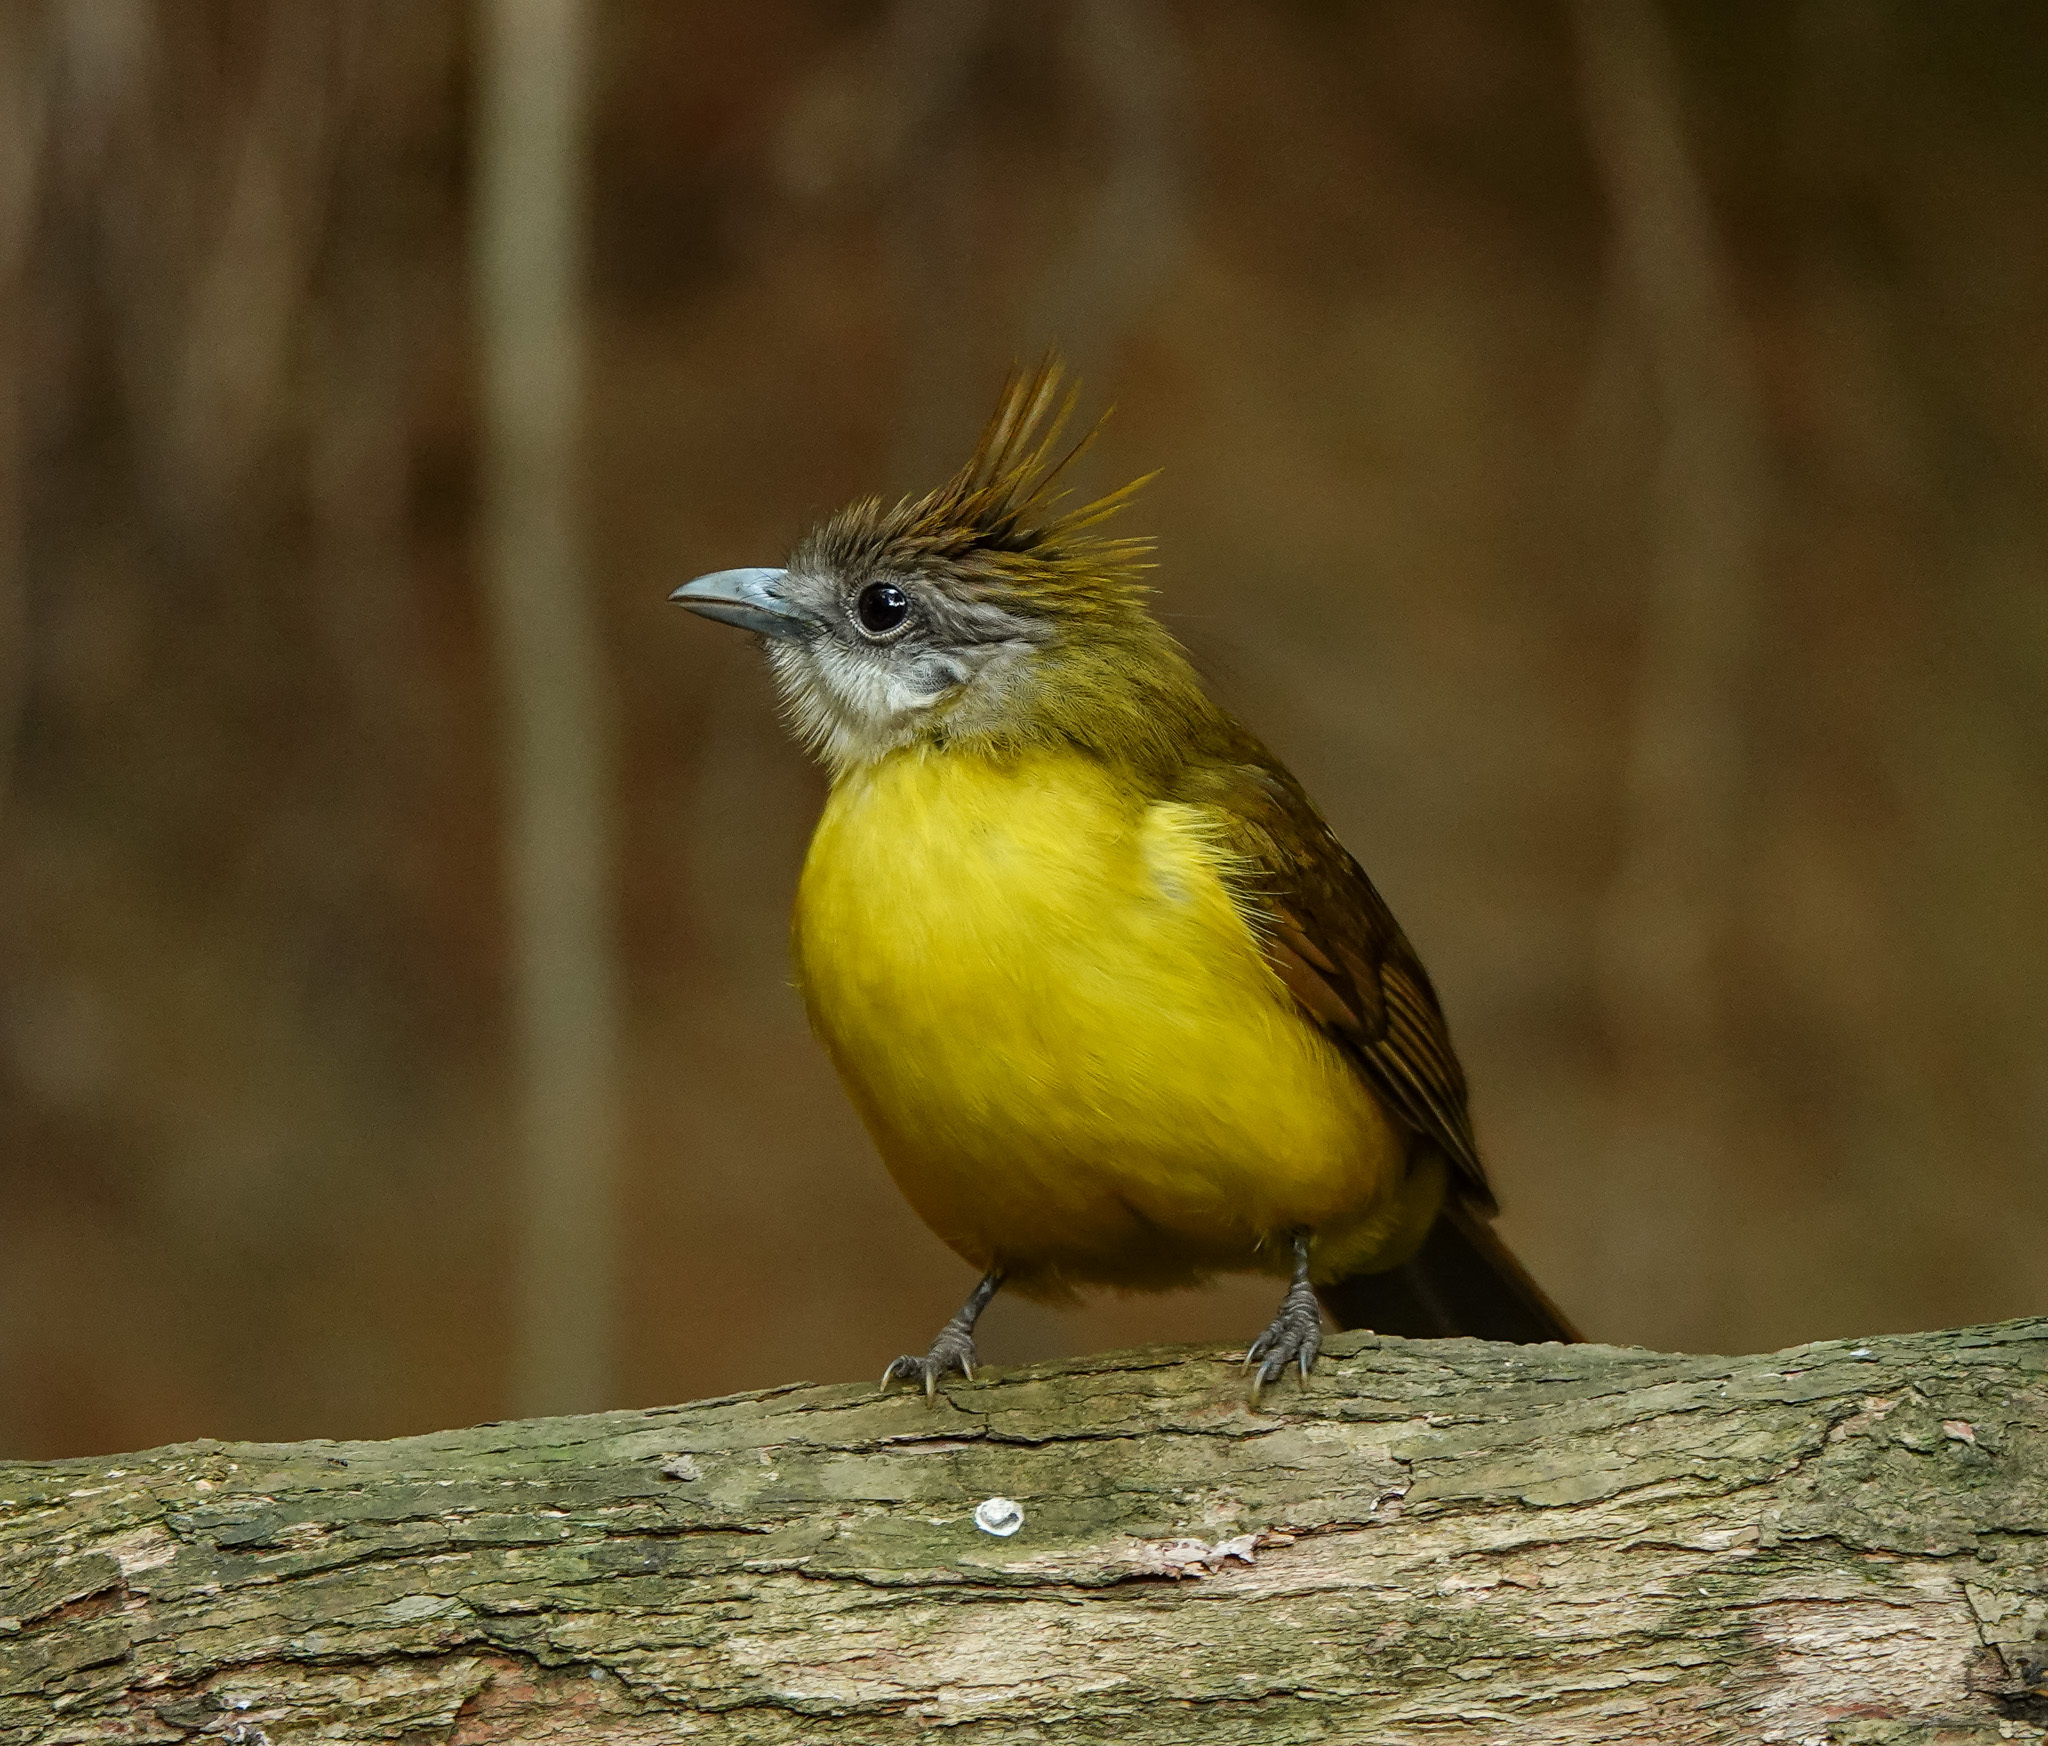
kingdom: Animalia
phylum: Chordata
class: Aves
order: Passeriformes
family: Pycnonotidae
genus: Alophoixus
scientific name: Alophoixus flaveolus
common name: White-throated bulbul
